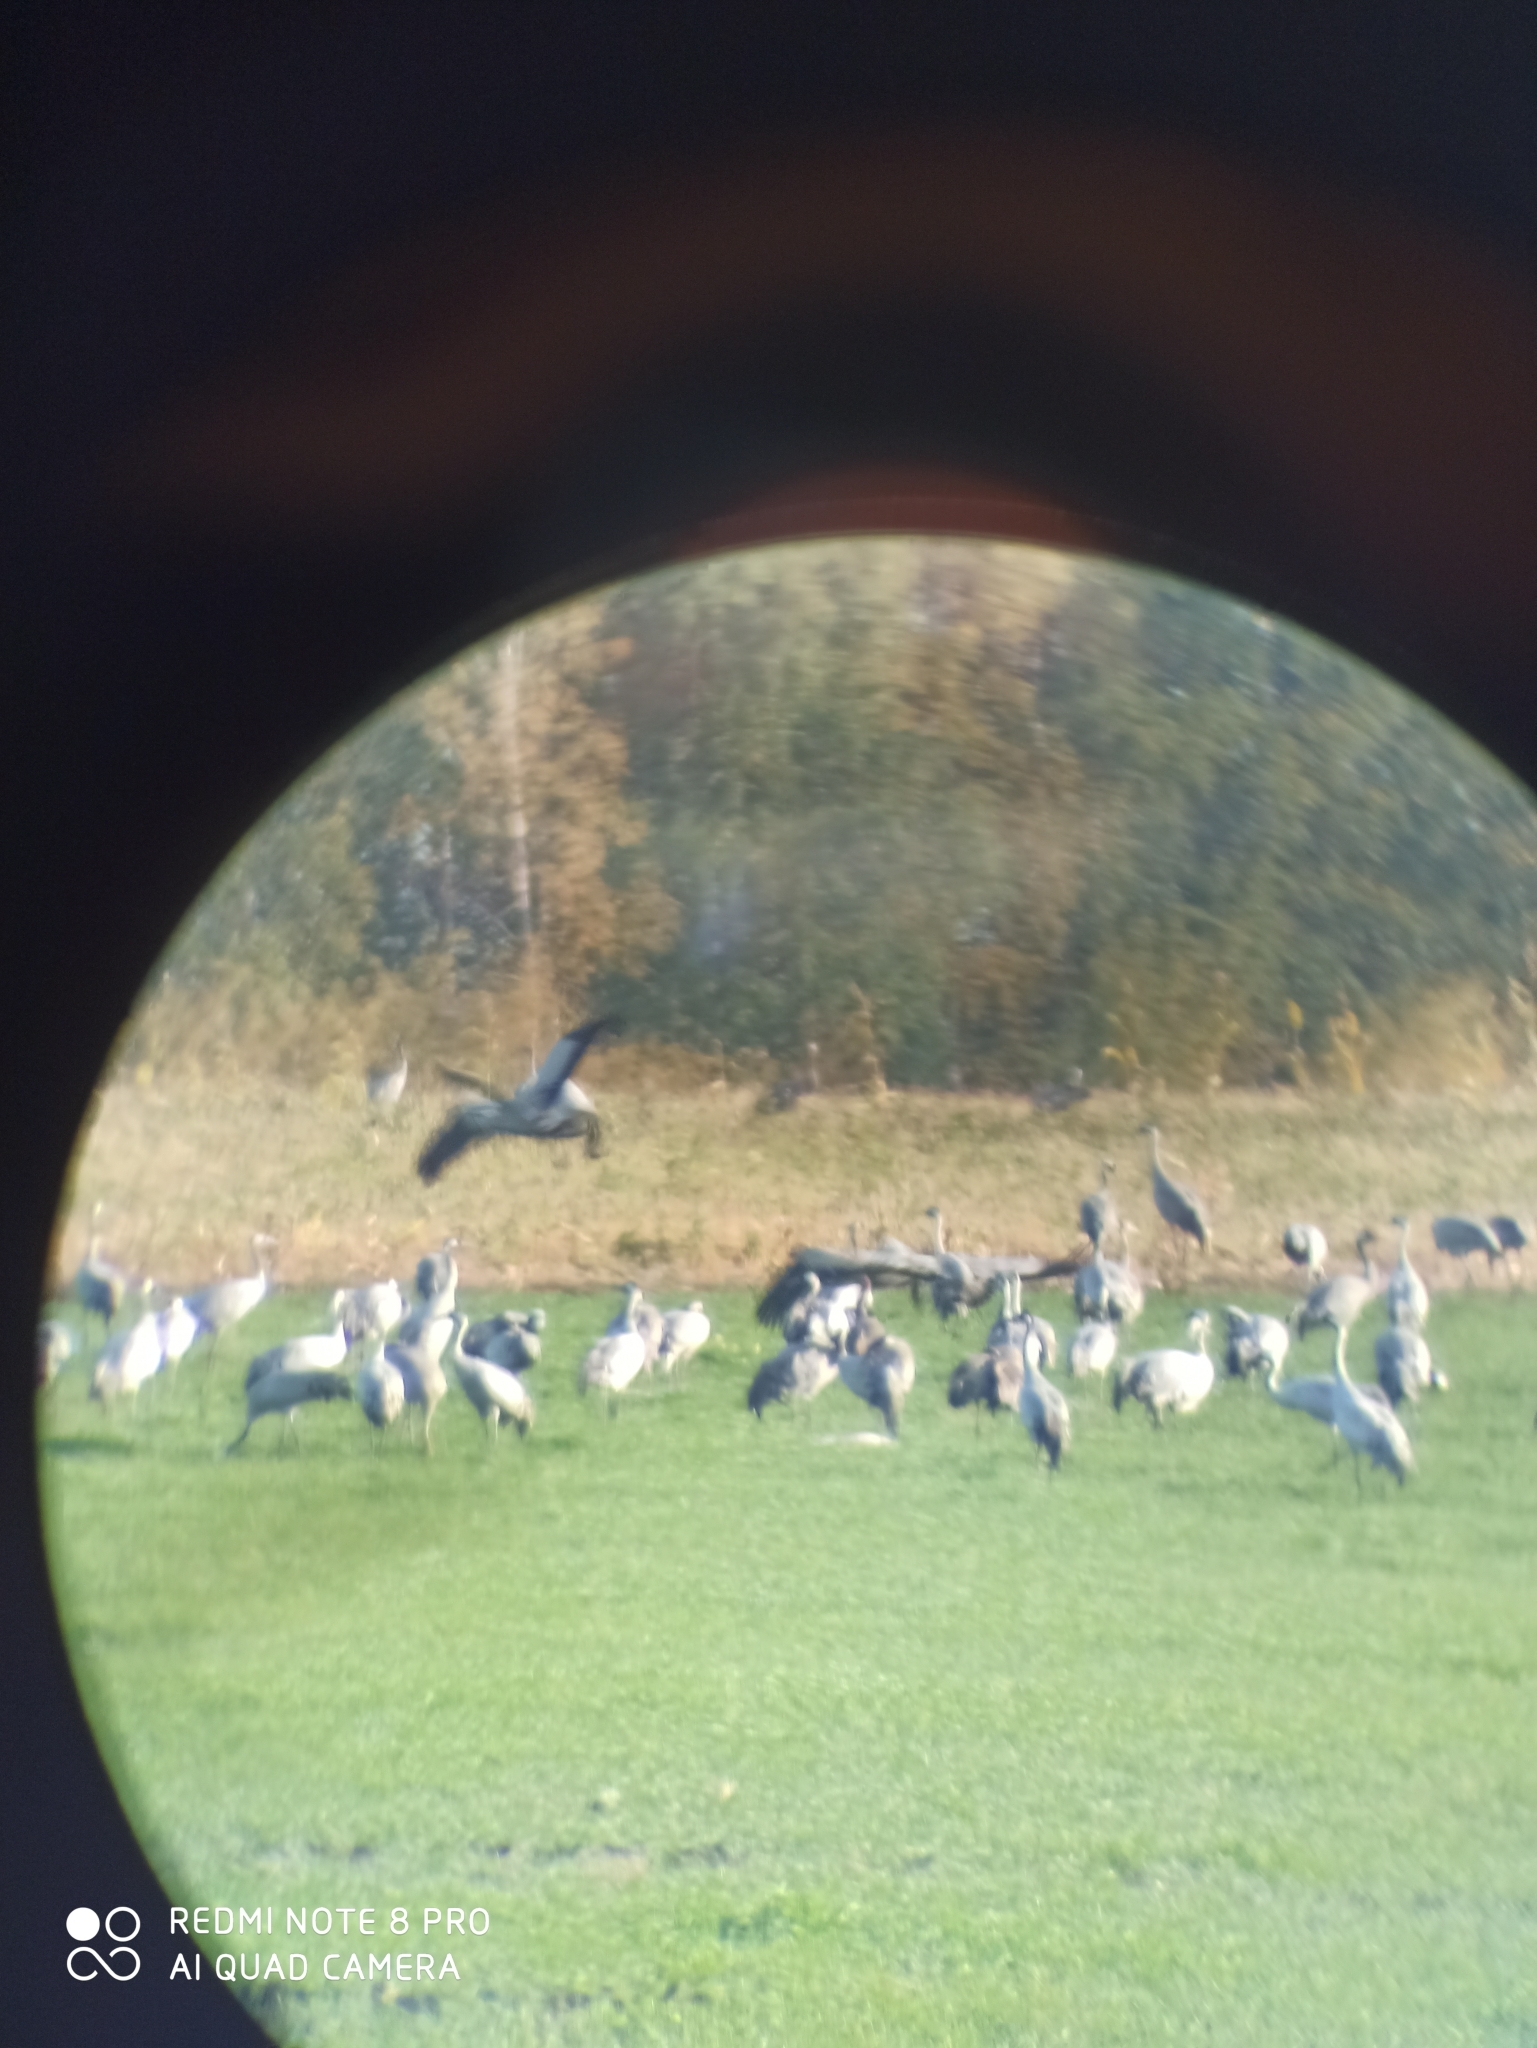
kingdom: Animalia
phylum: Chordata
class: Aves
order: Gruiformes
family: Gruidae
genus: Grus
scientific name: Grus grus
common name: Common crane
